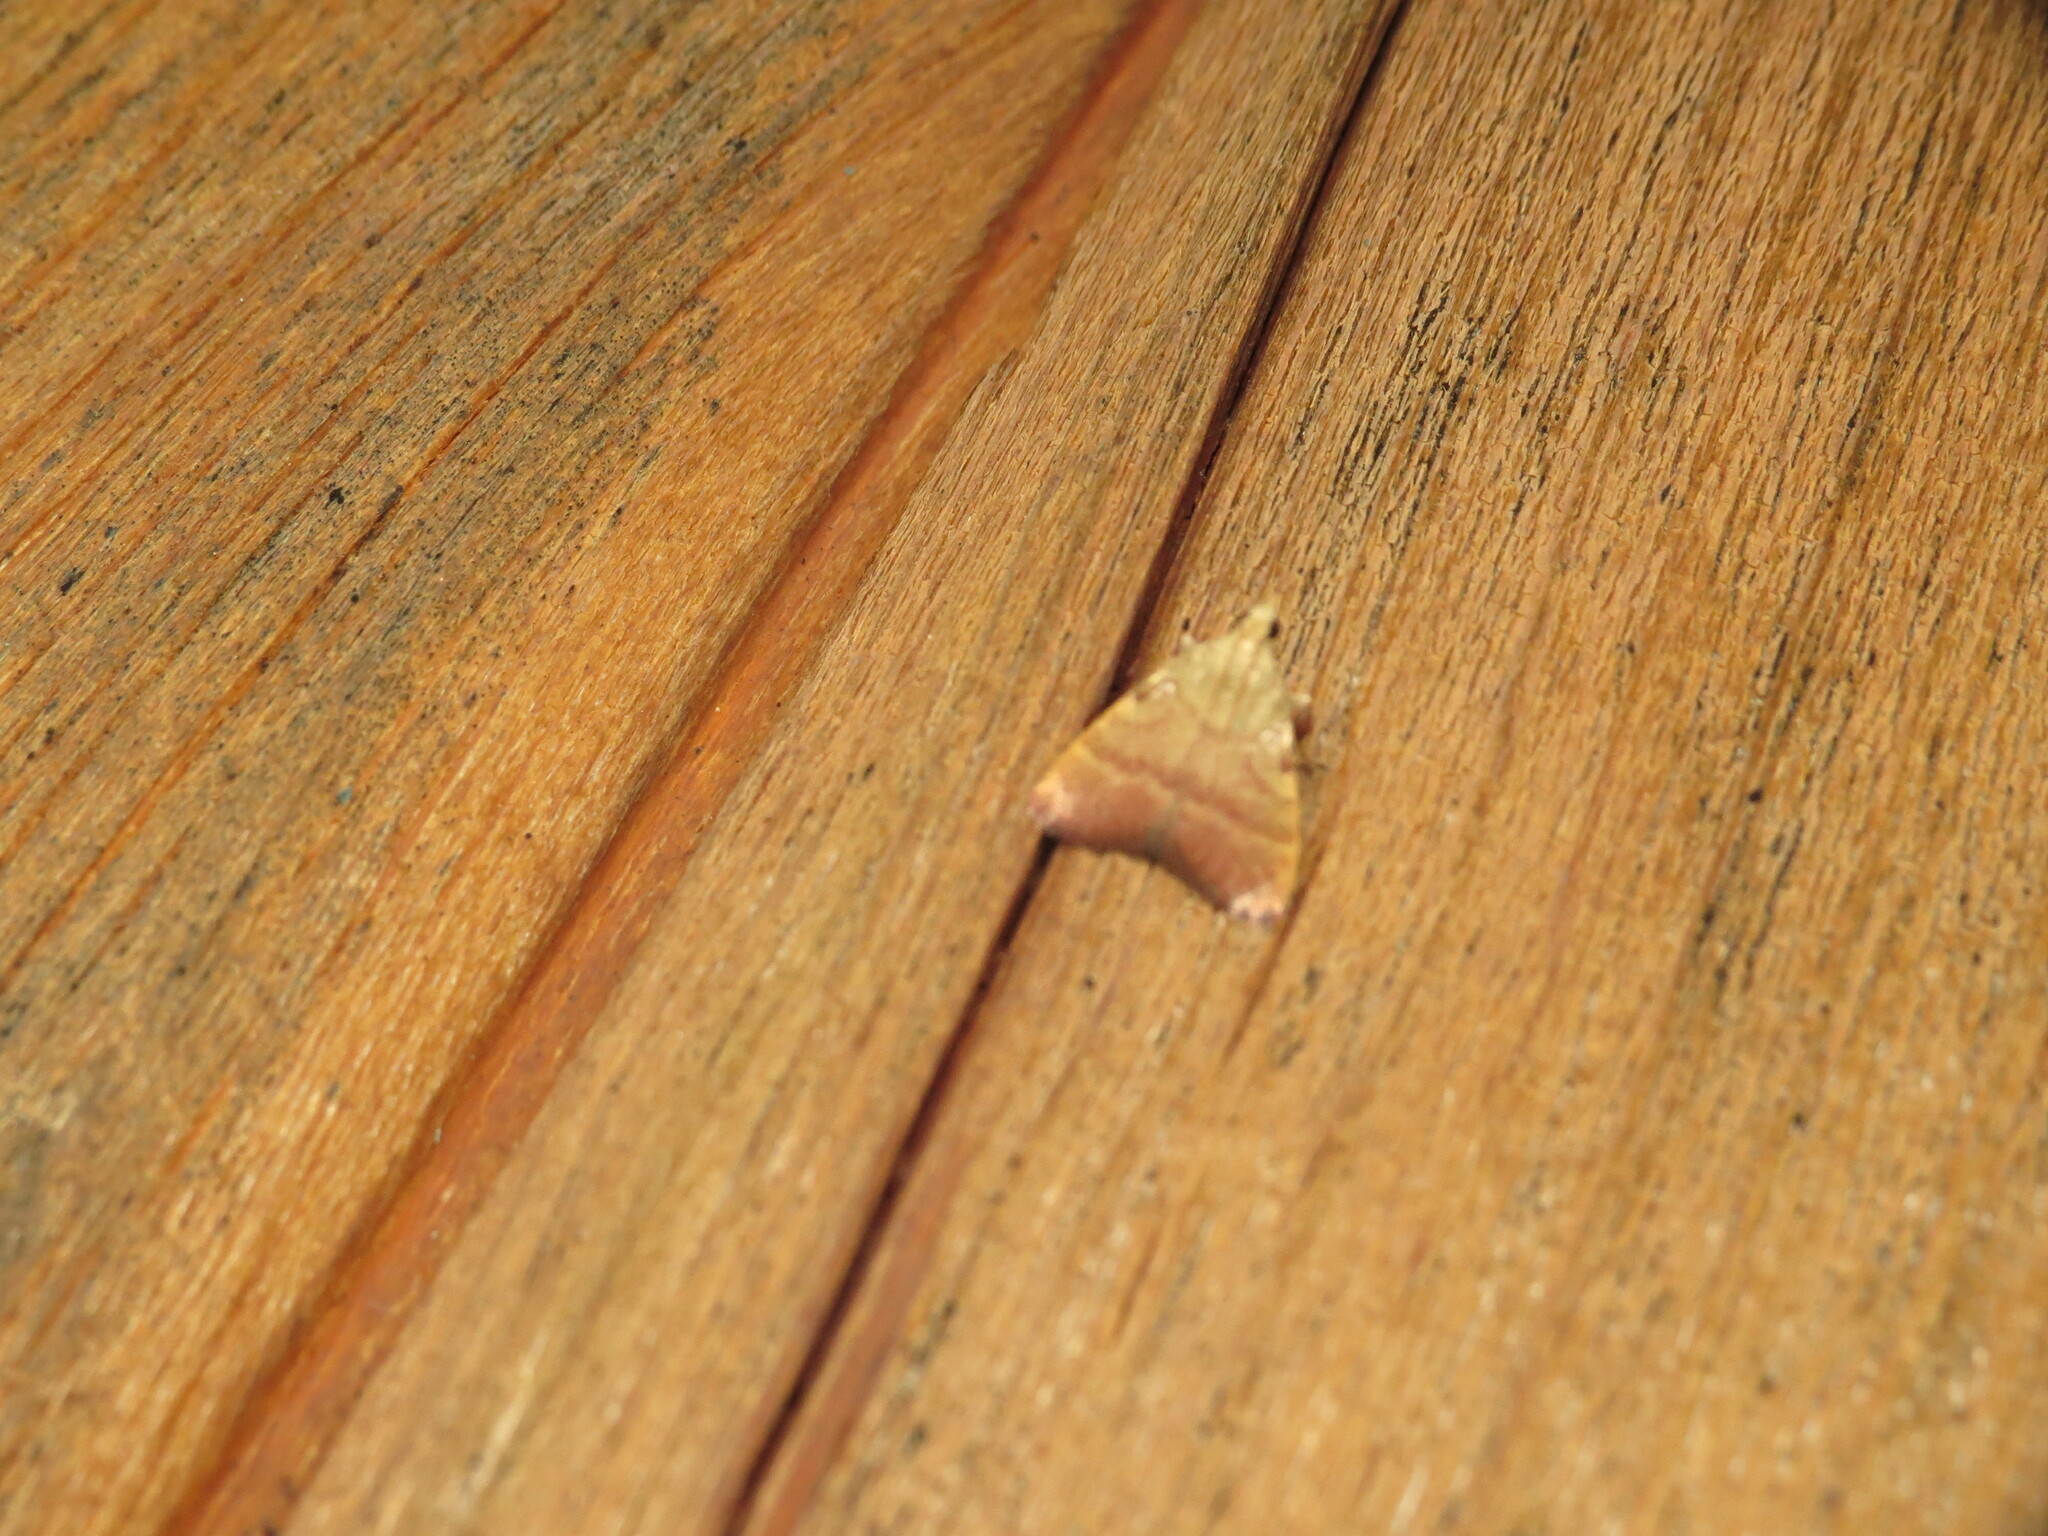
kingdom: Animalia
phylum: Arthropoda
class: Insecta
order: Lepidoptera
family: Pyralidae
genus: Condylolomia
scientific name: Condylolomia participialis
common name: Drab condylolomia moth
